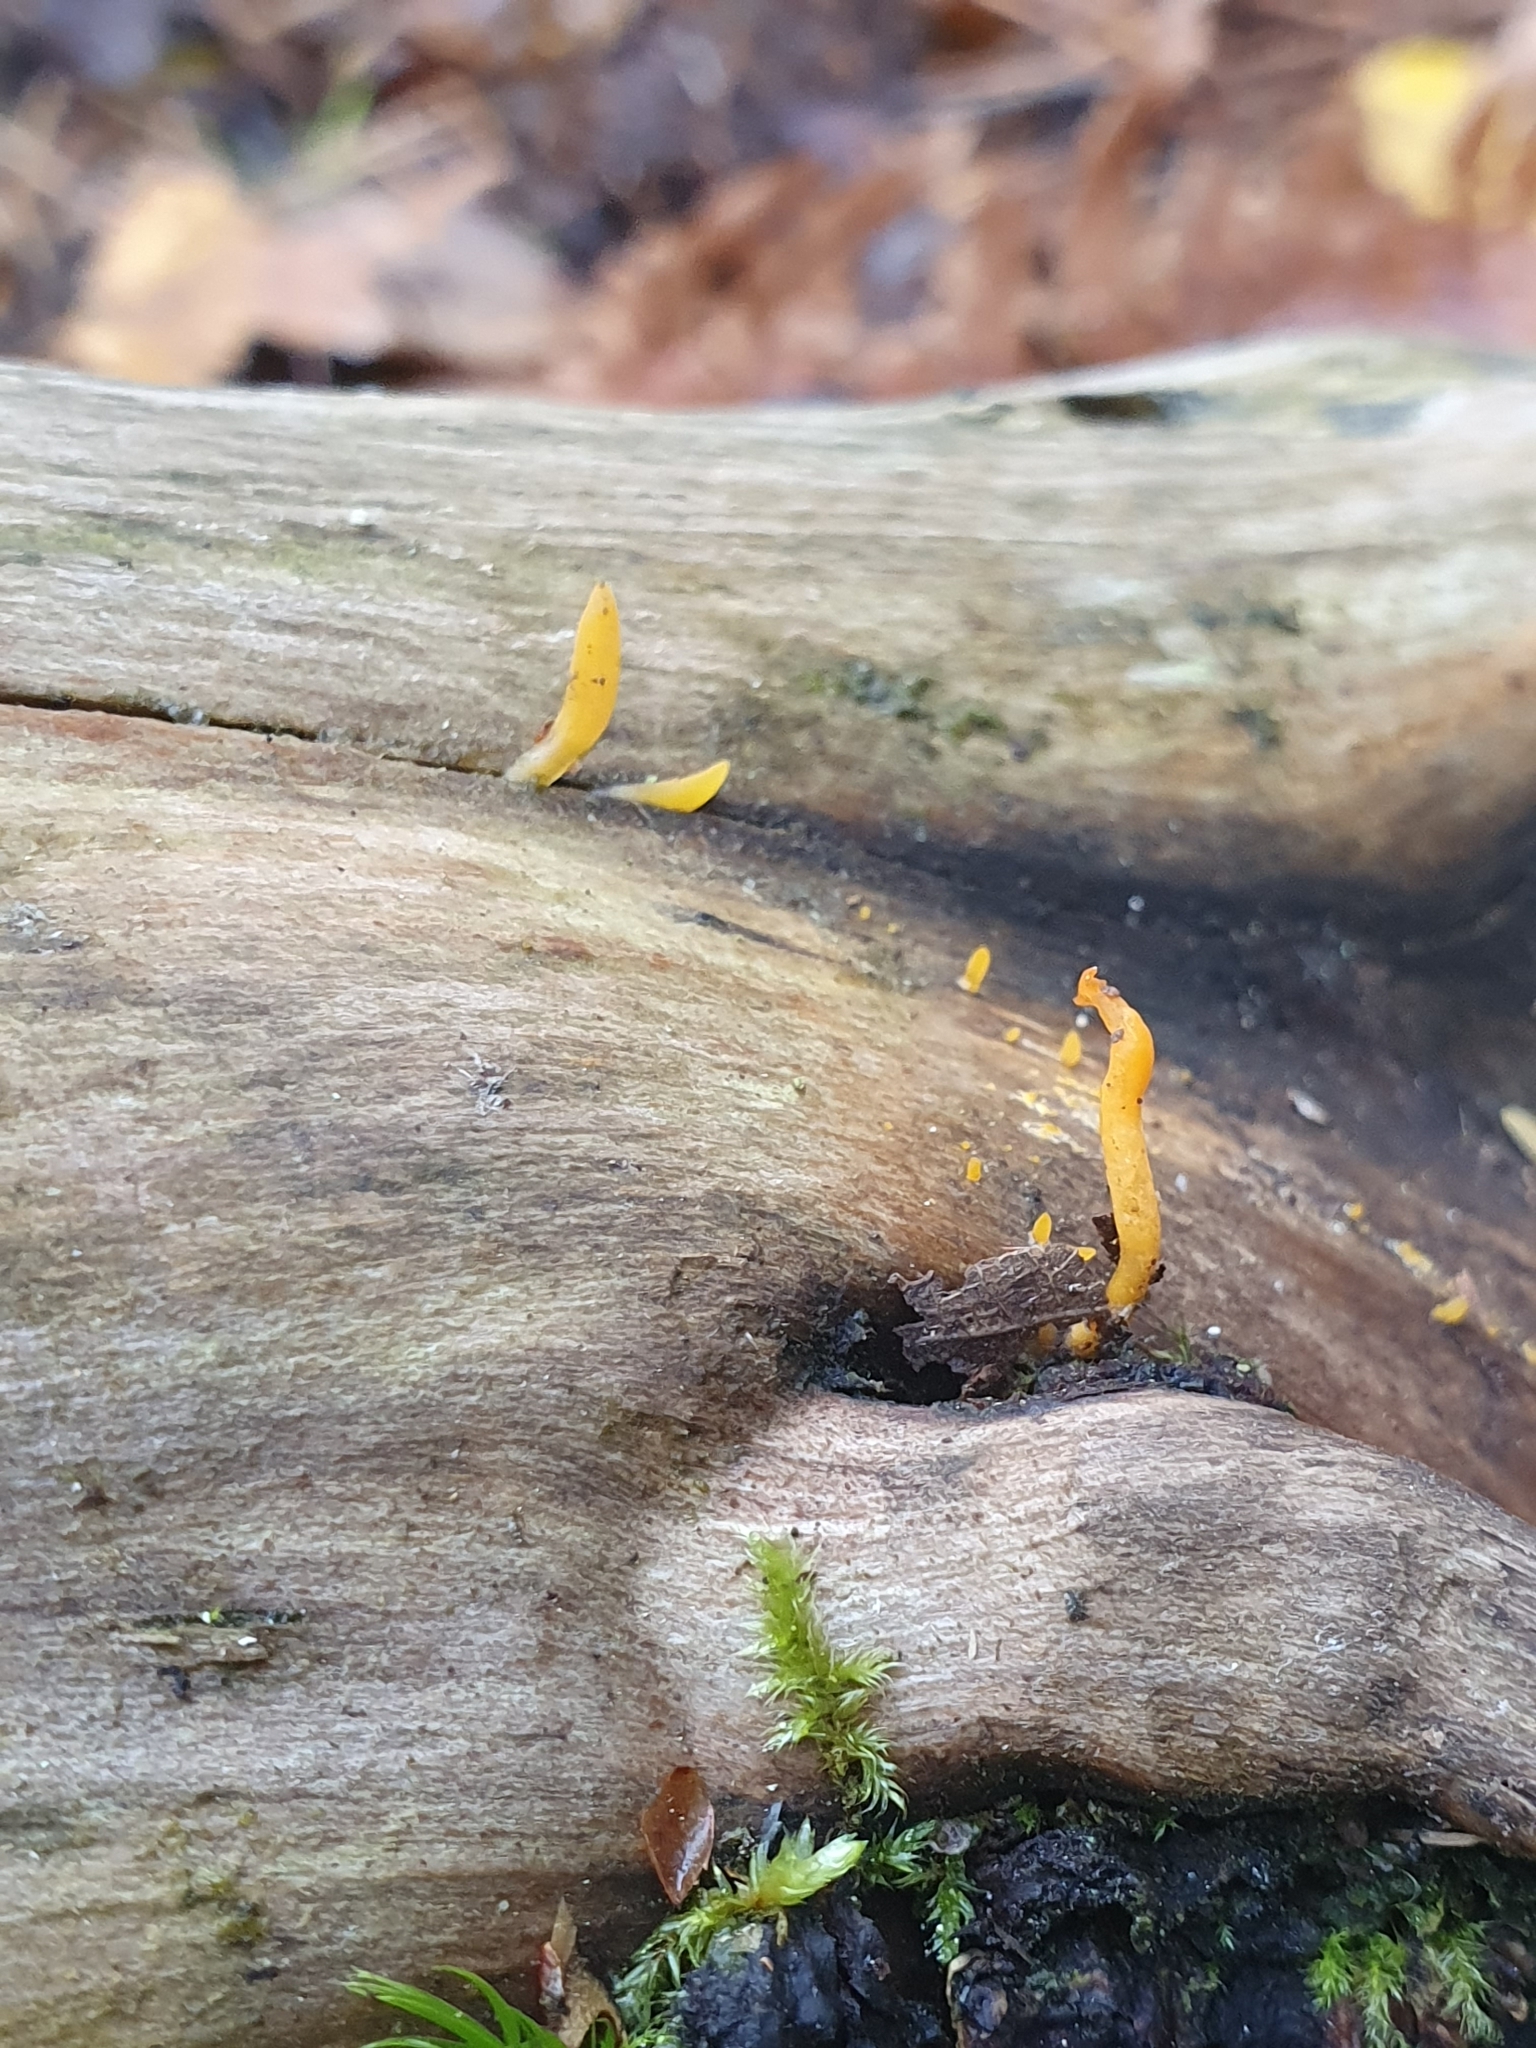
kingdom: Fungi
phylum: Basidiomycota
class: Dacrymycetes
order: Dacrymycetales
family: Dacrymycetaceae
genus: Calocera
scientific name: Calocera cornea
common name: Small stagshorn
